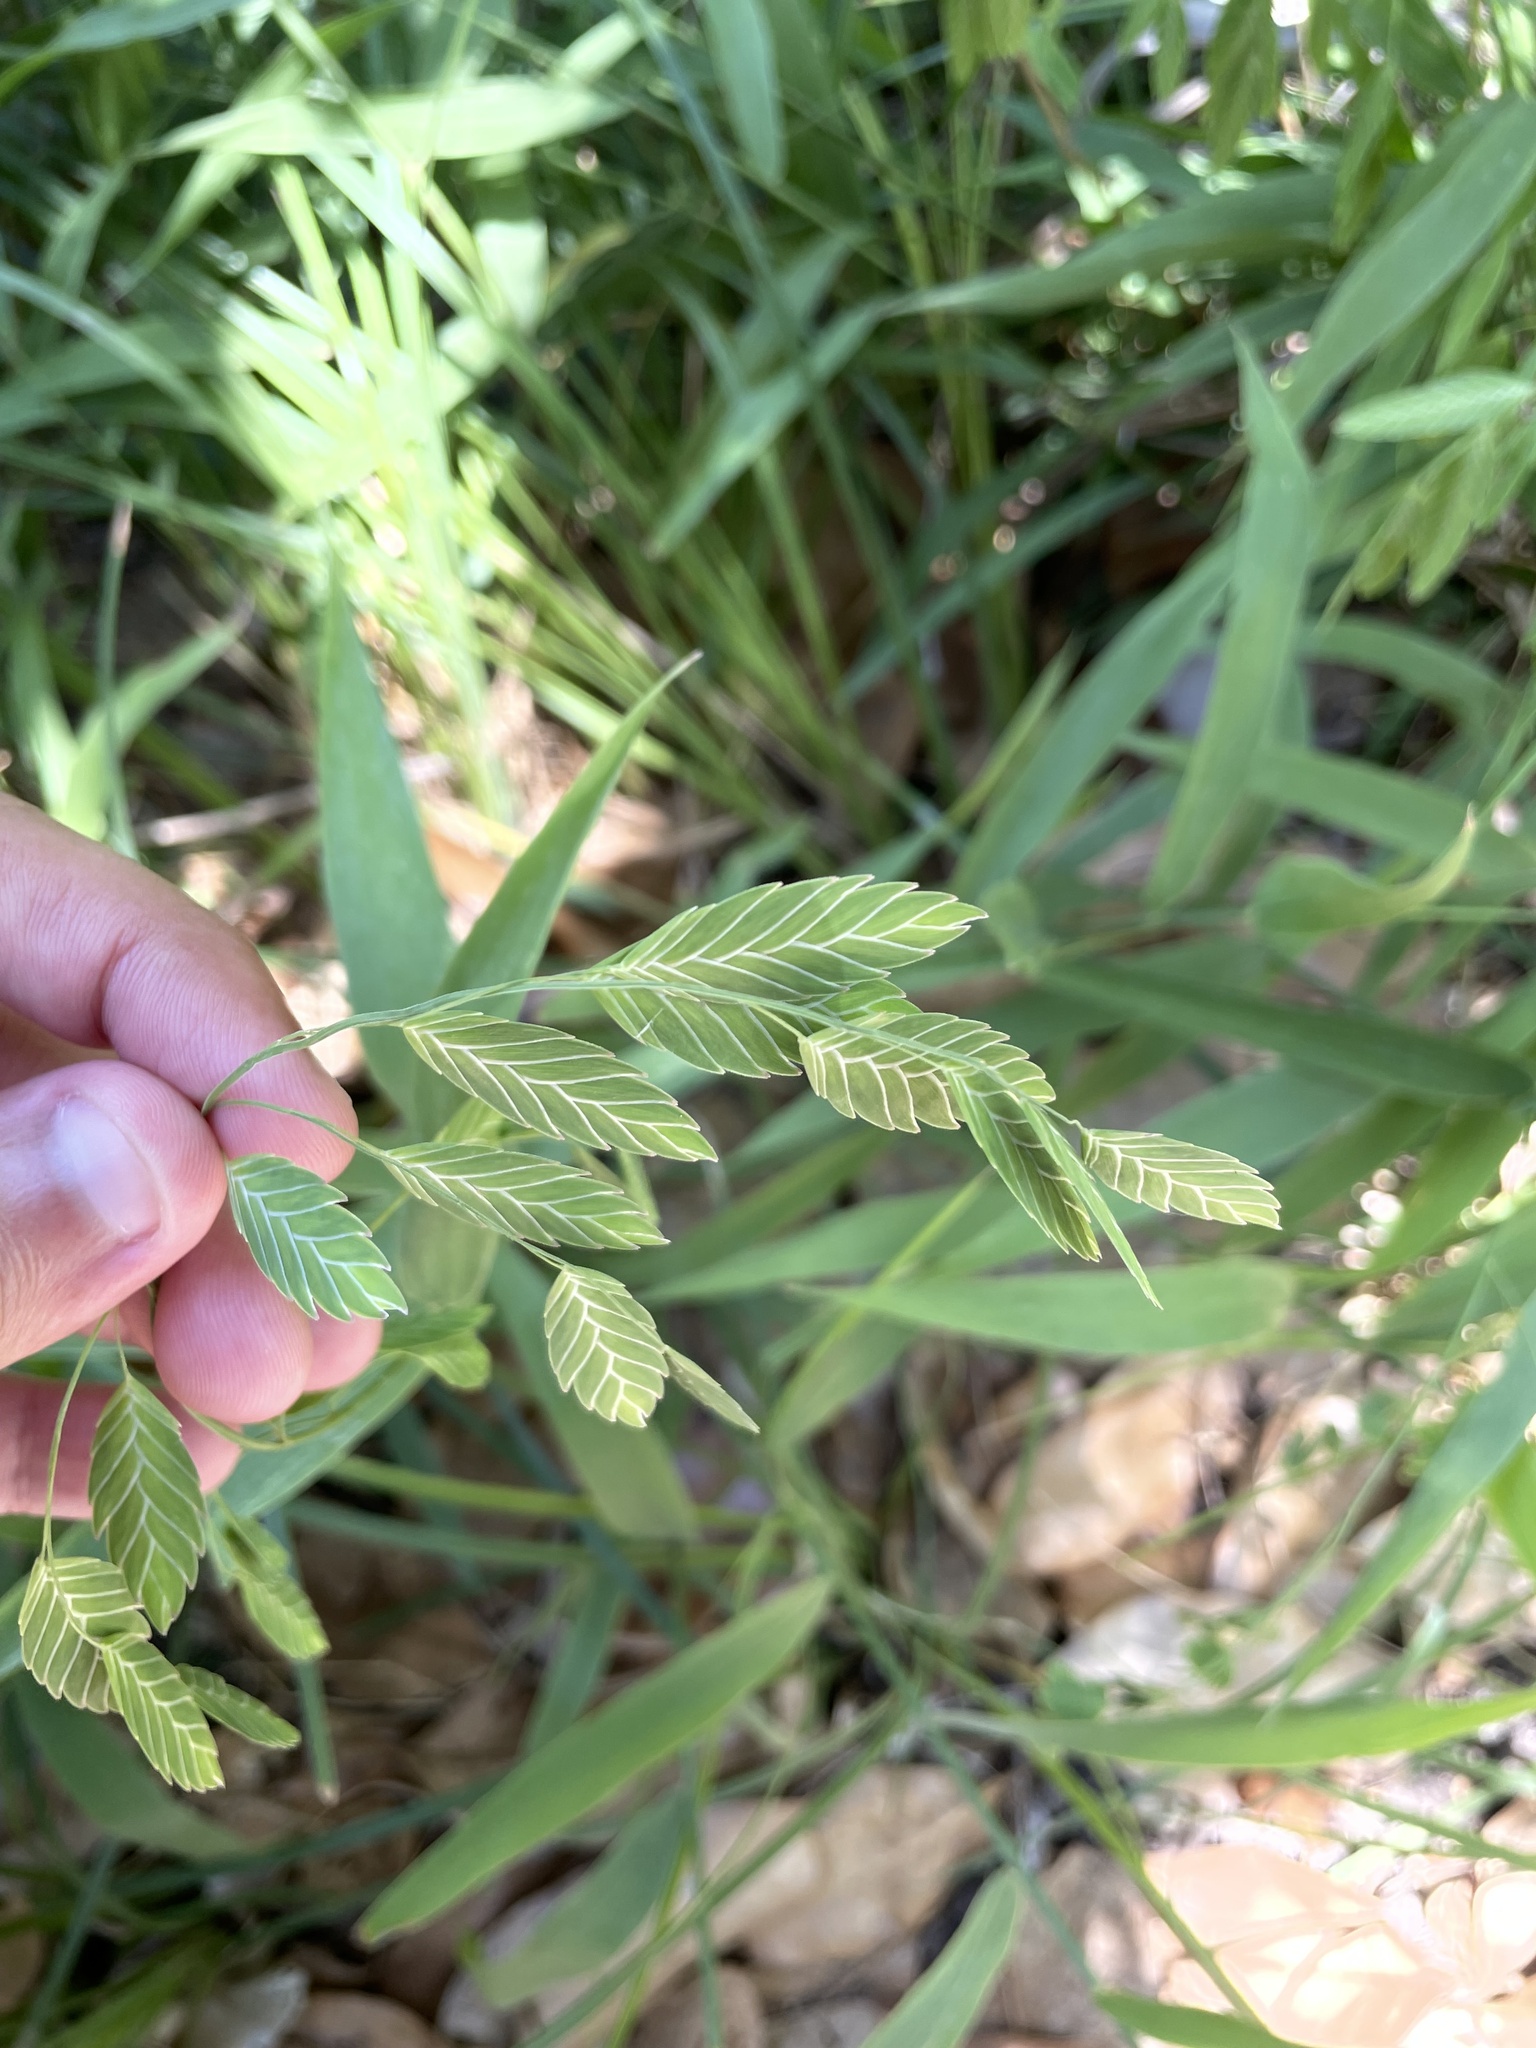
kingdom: Plantae
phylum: Tracheophyta
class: Liliopsida
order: Poales
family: Poaceae
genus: Chasmanthium
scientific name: Chasmanthium latifolium
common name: Broad-leaved chasmanthium
